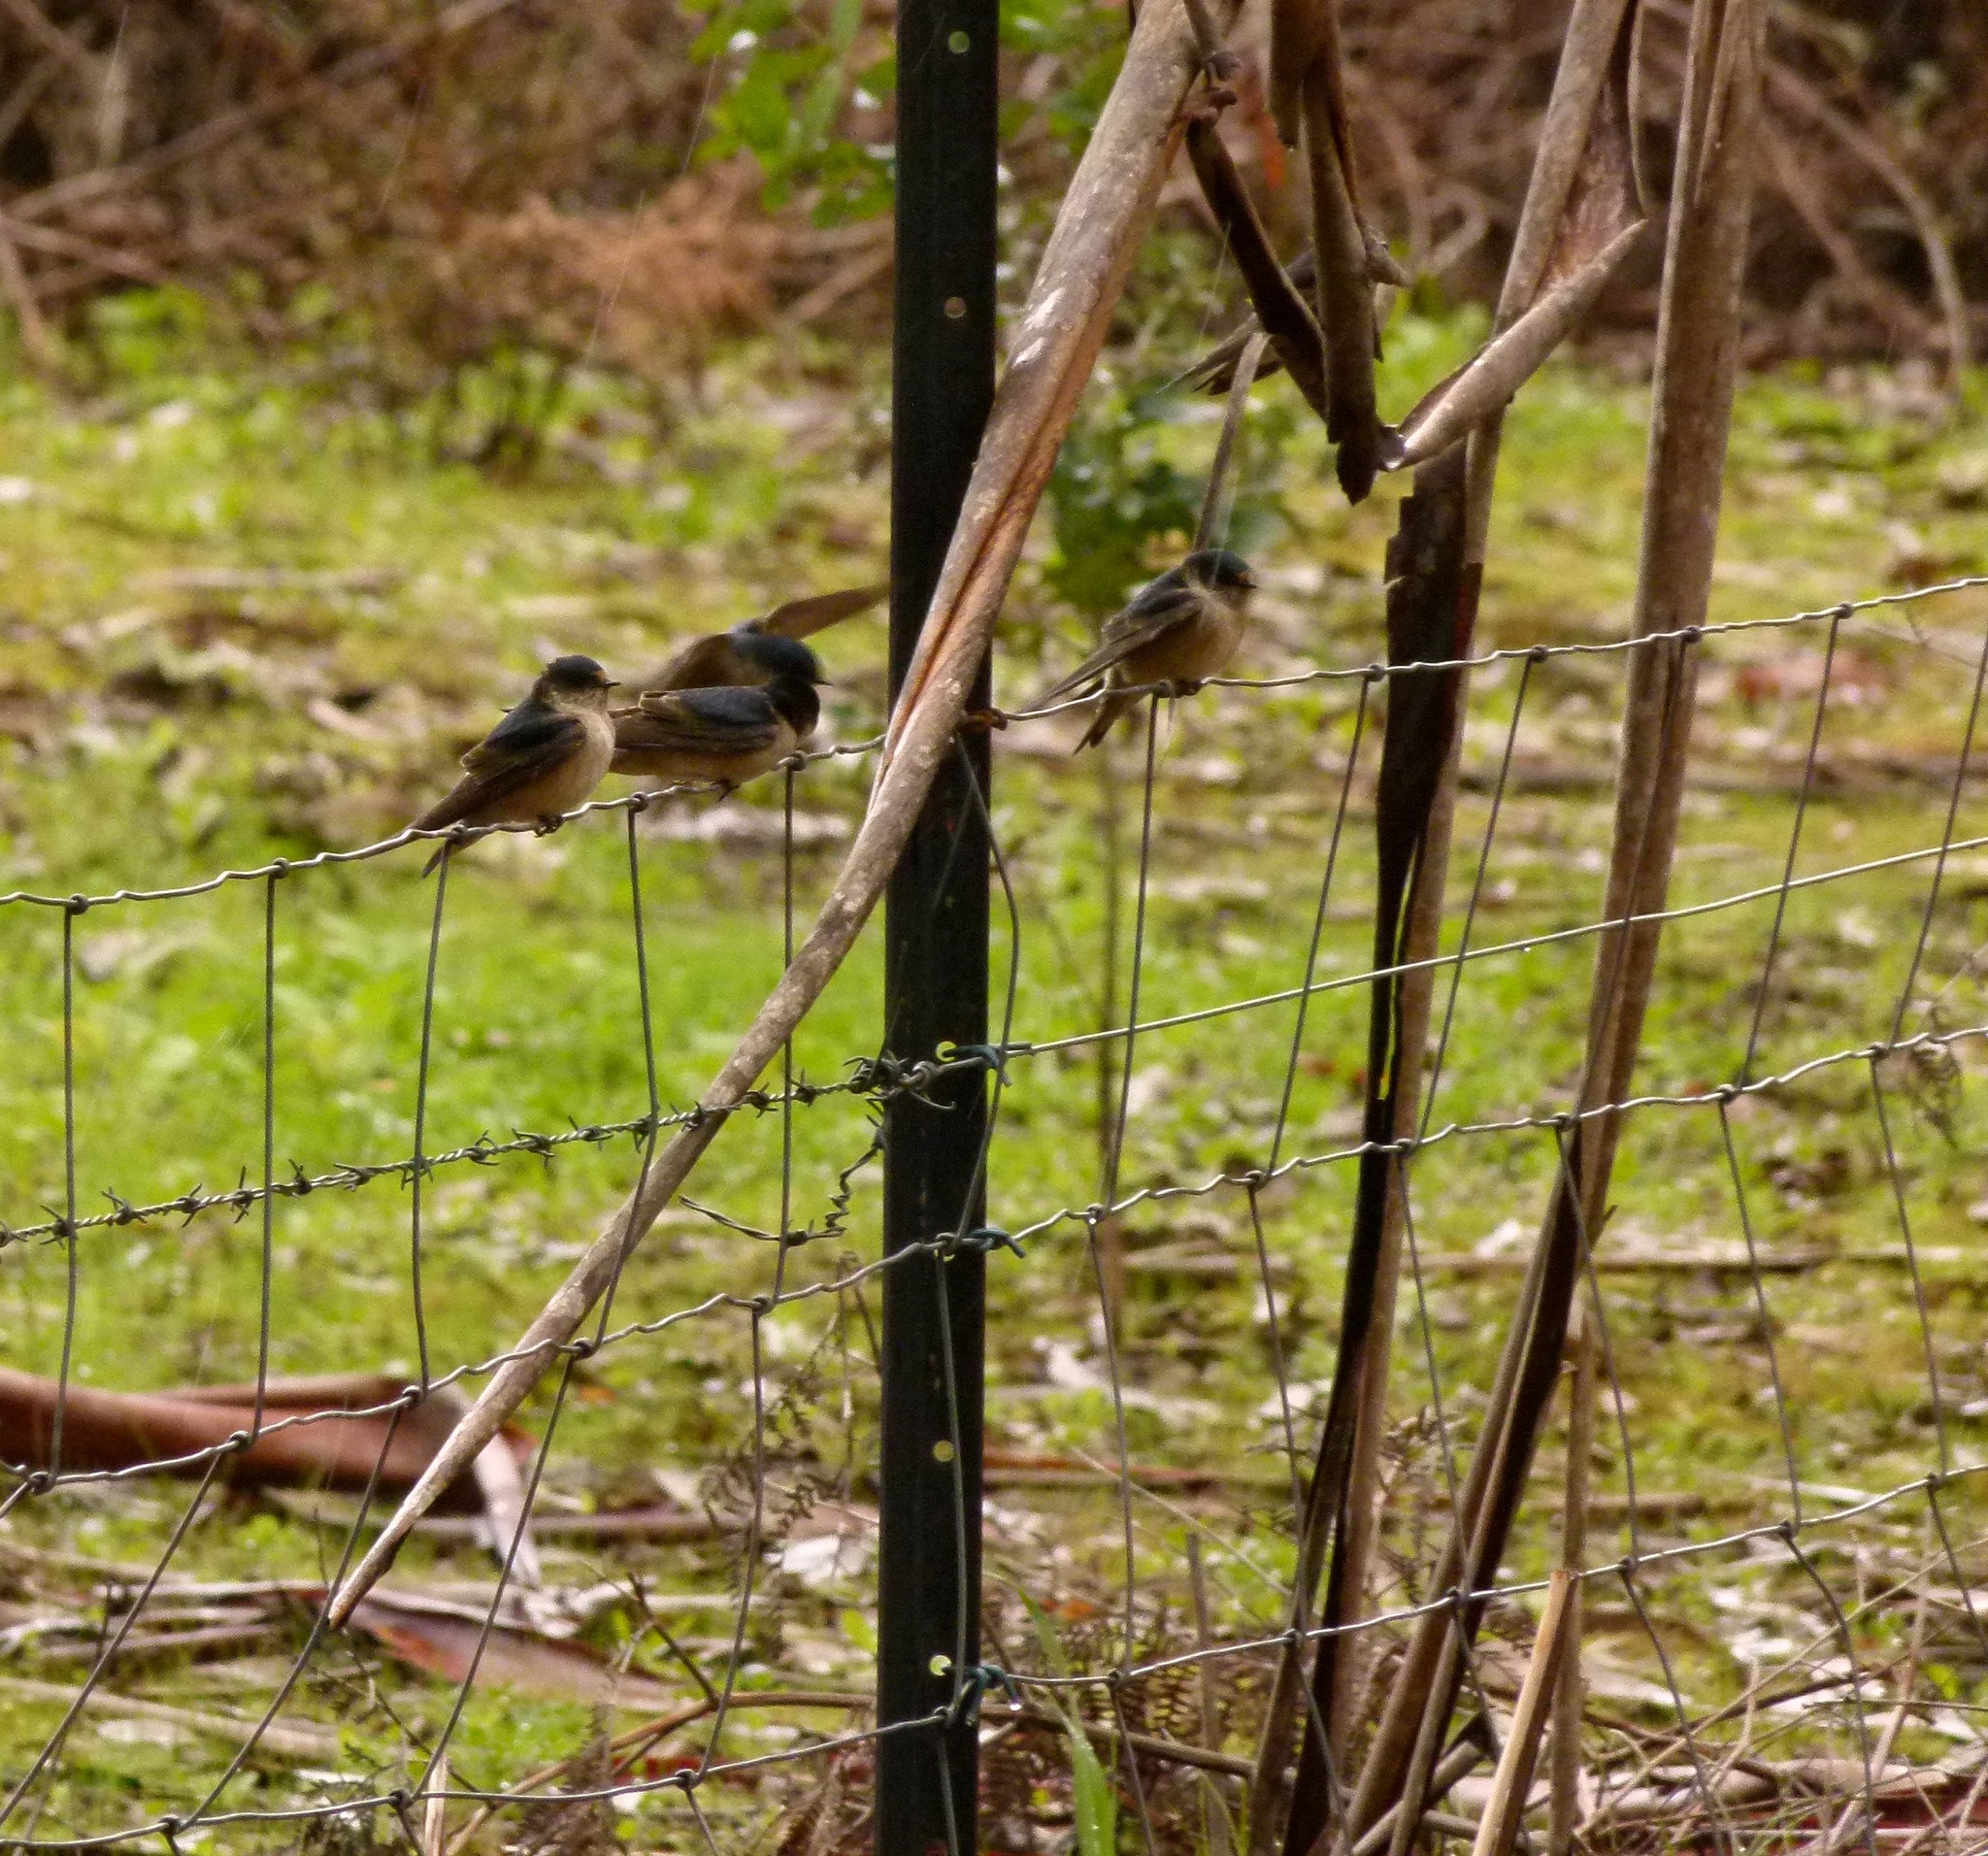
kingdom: Animalia
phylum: Chordata
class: Aves
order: Passeriformes
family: Hirundinidae
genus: Petrochelidon
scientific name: Petrochelidon nigricans
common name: Tree martin
